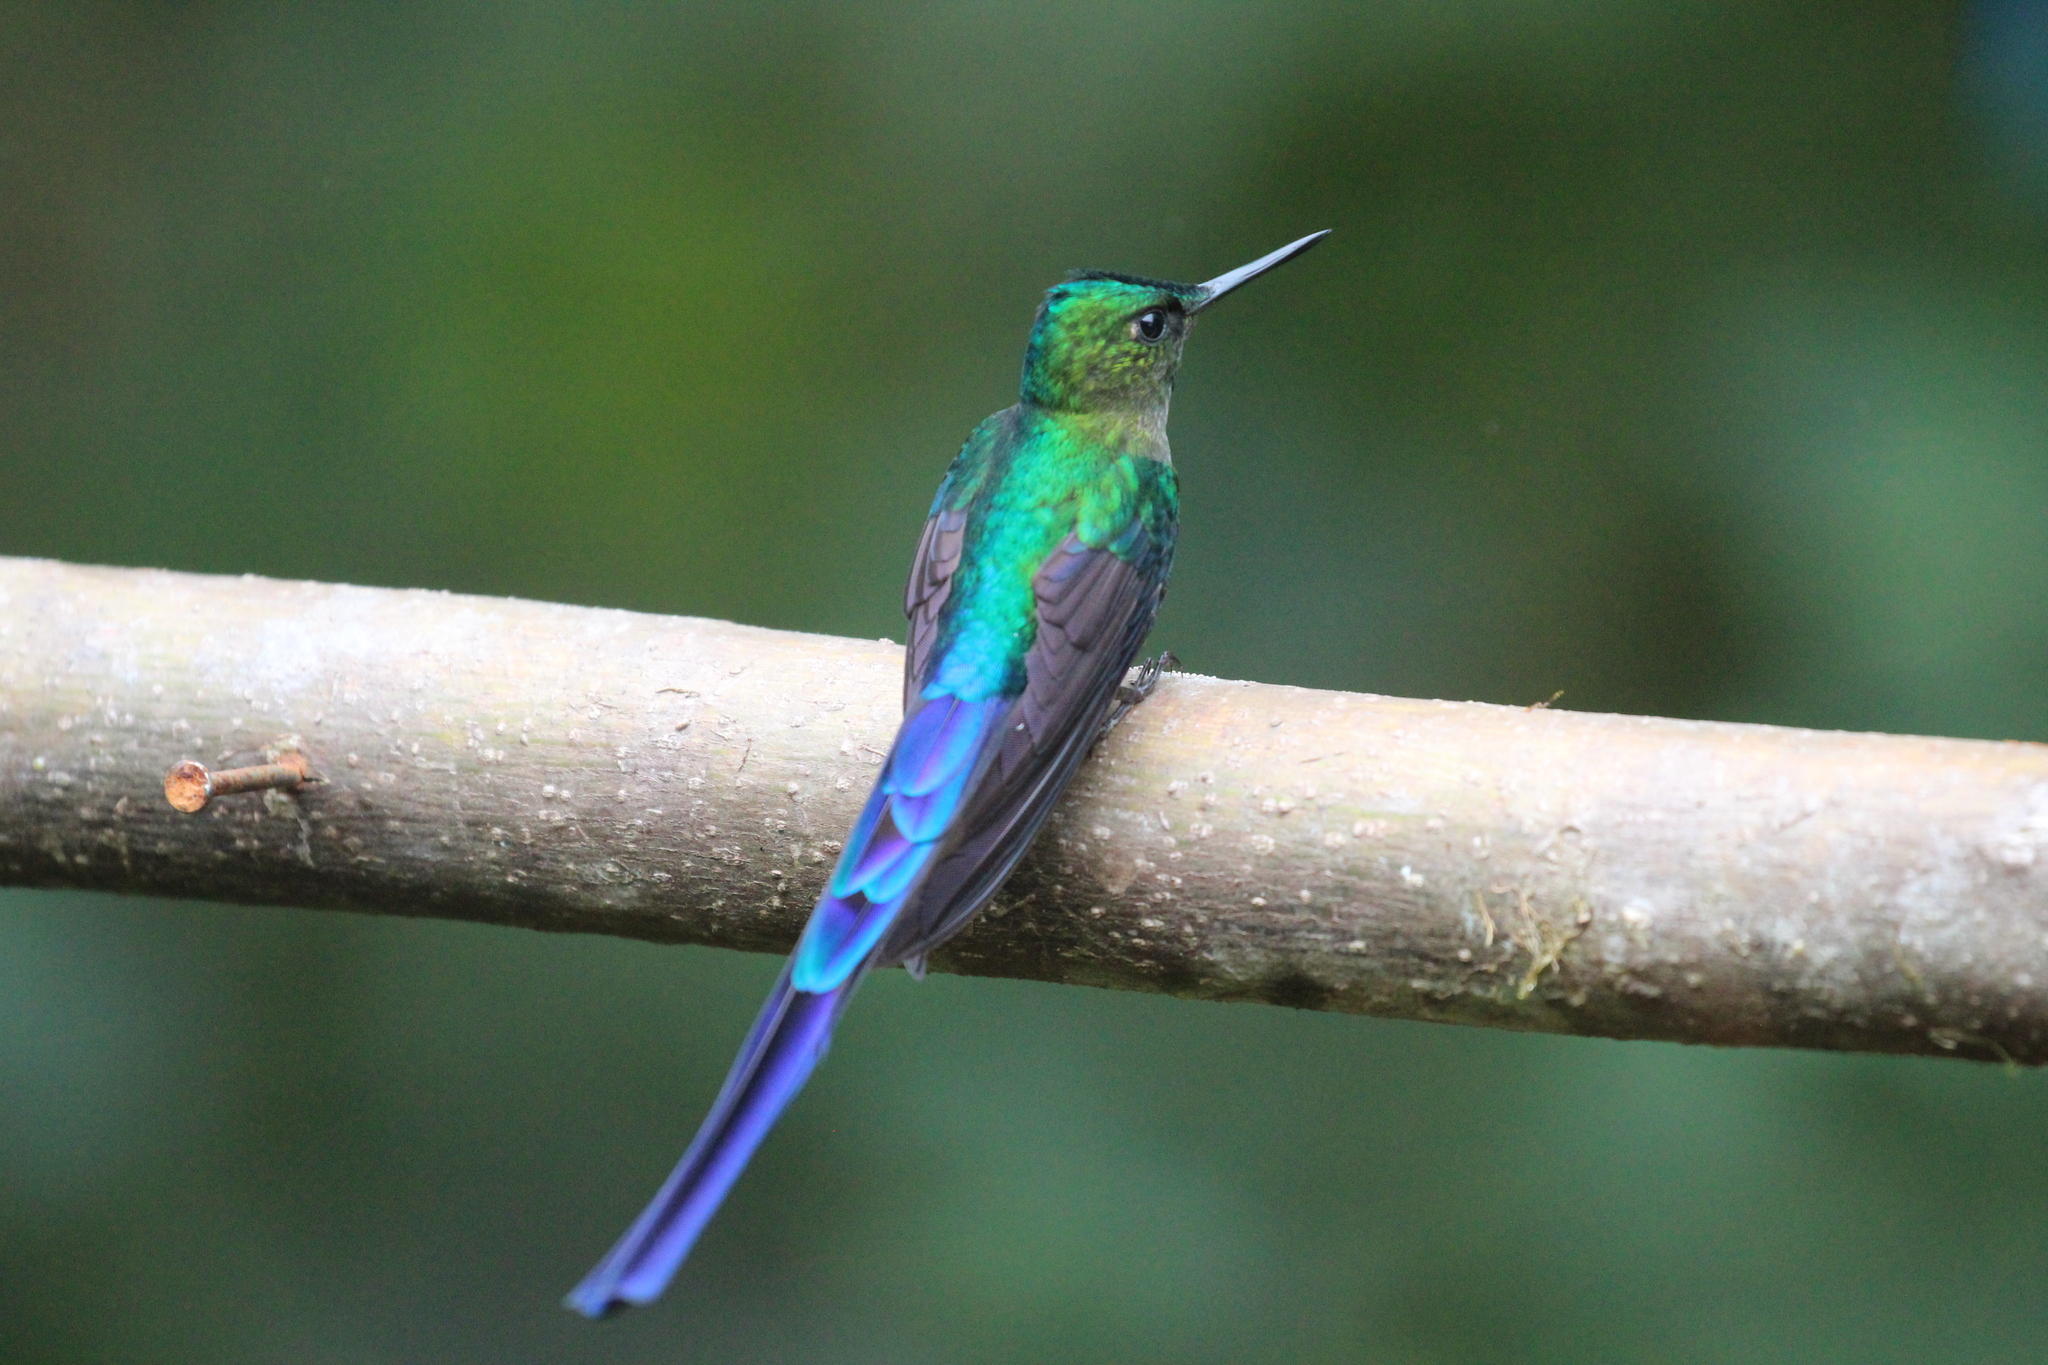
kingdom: Animalia
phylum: Chordata
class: Aves
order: Apodiformes
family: Trochilidae
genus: Aglaiocercus
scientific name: Aglaiocercus coelestis
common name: Violet-tailed sylph
